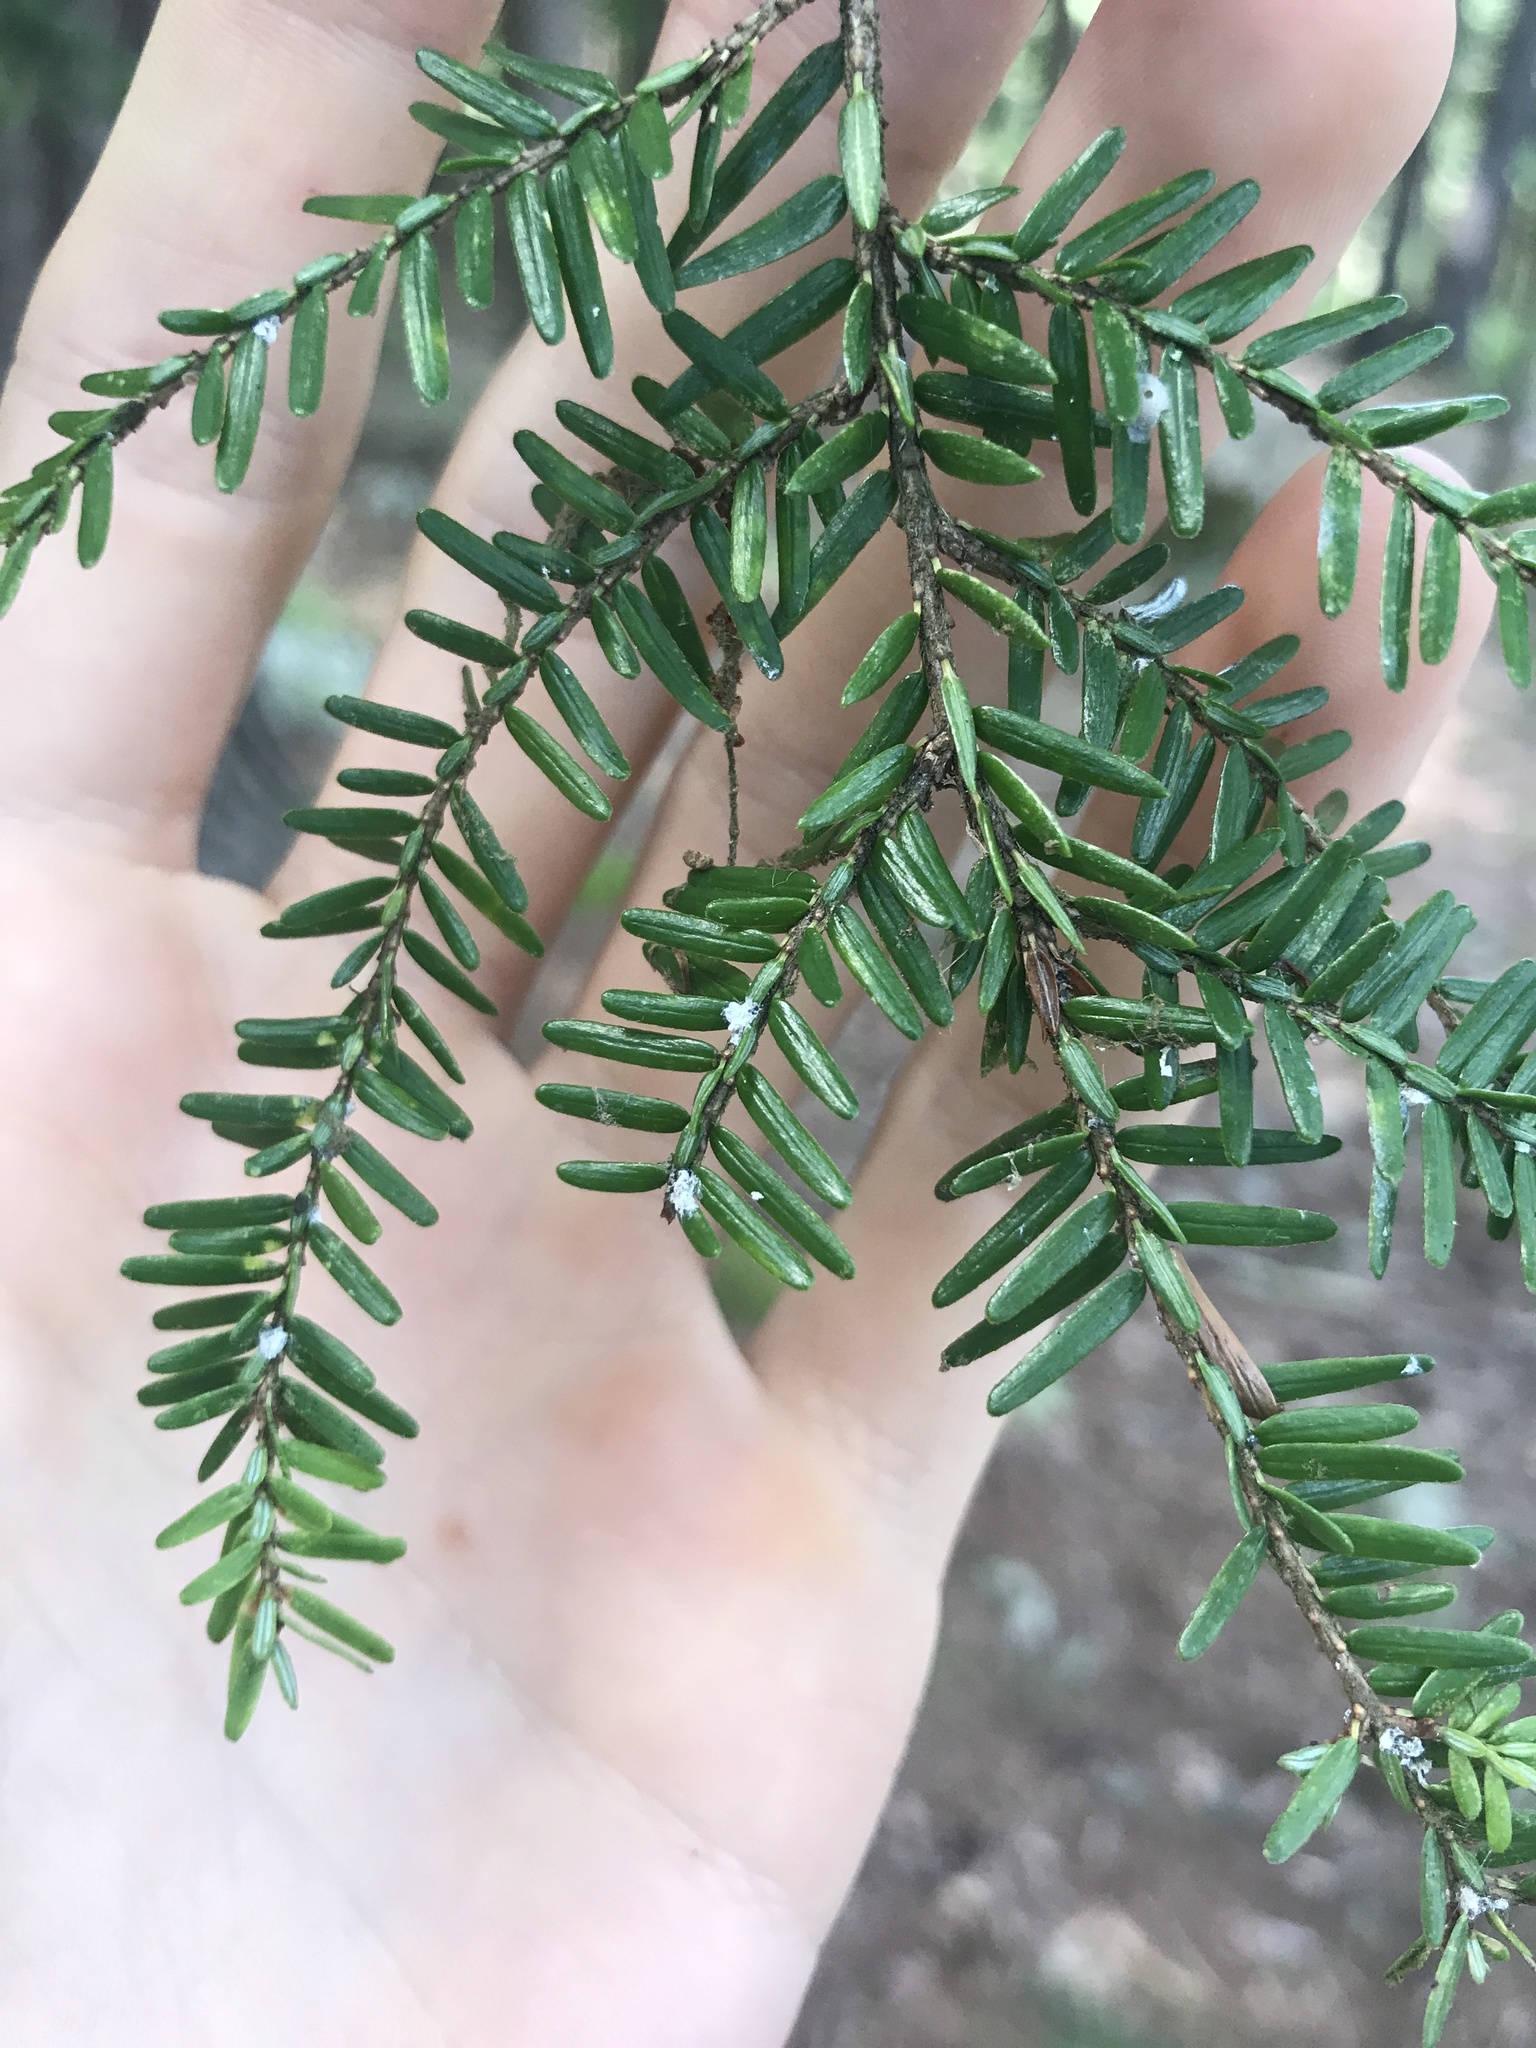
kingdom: Animalia
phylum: Arthropoda
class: Insecta
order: Hemiptera
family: Adelgidae
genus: Adelges
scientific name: Adelges tsugae
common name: Hemlock woolly adelgid
